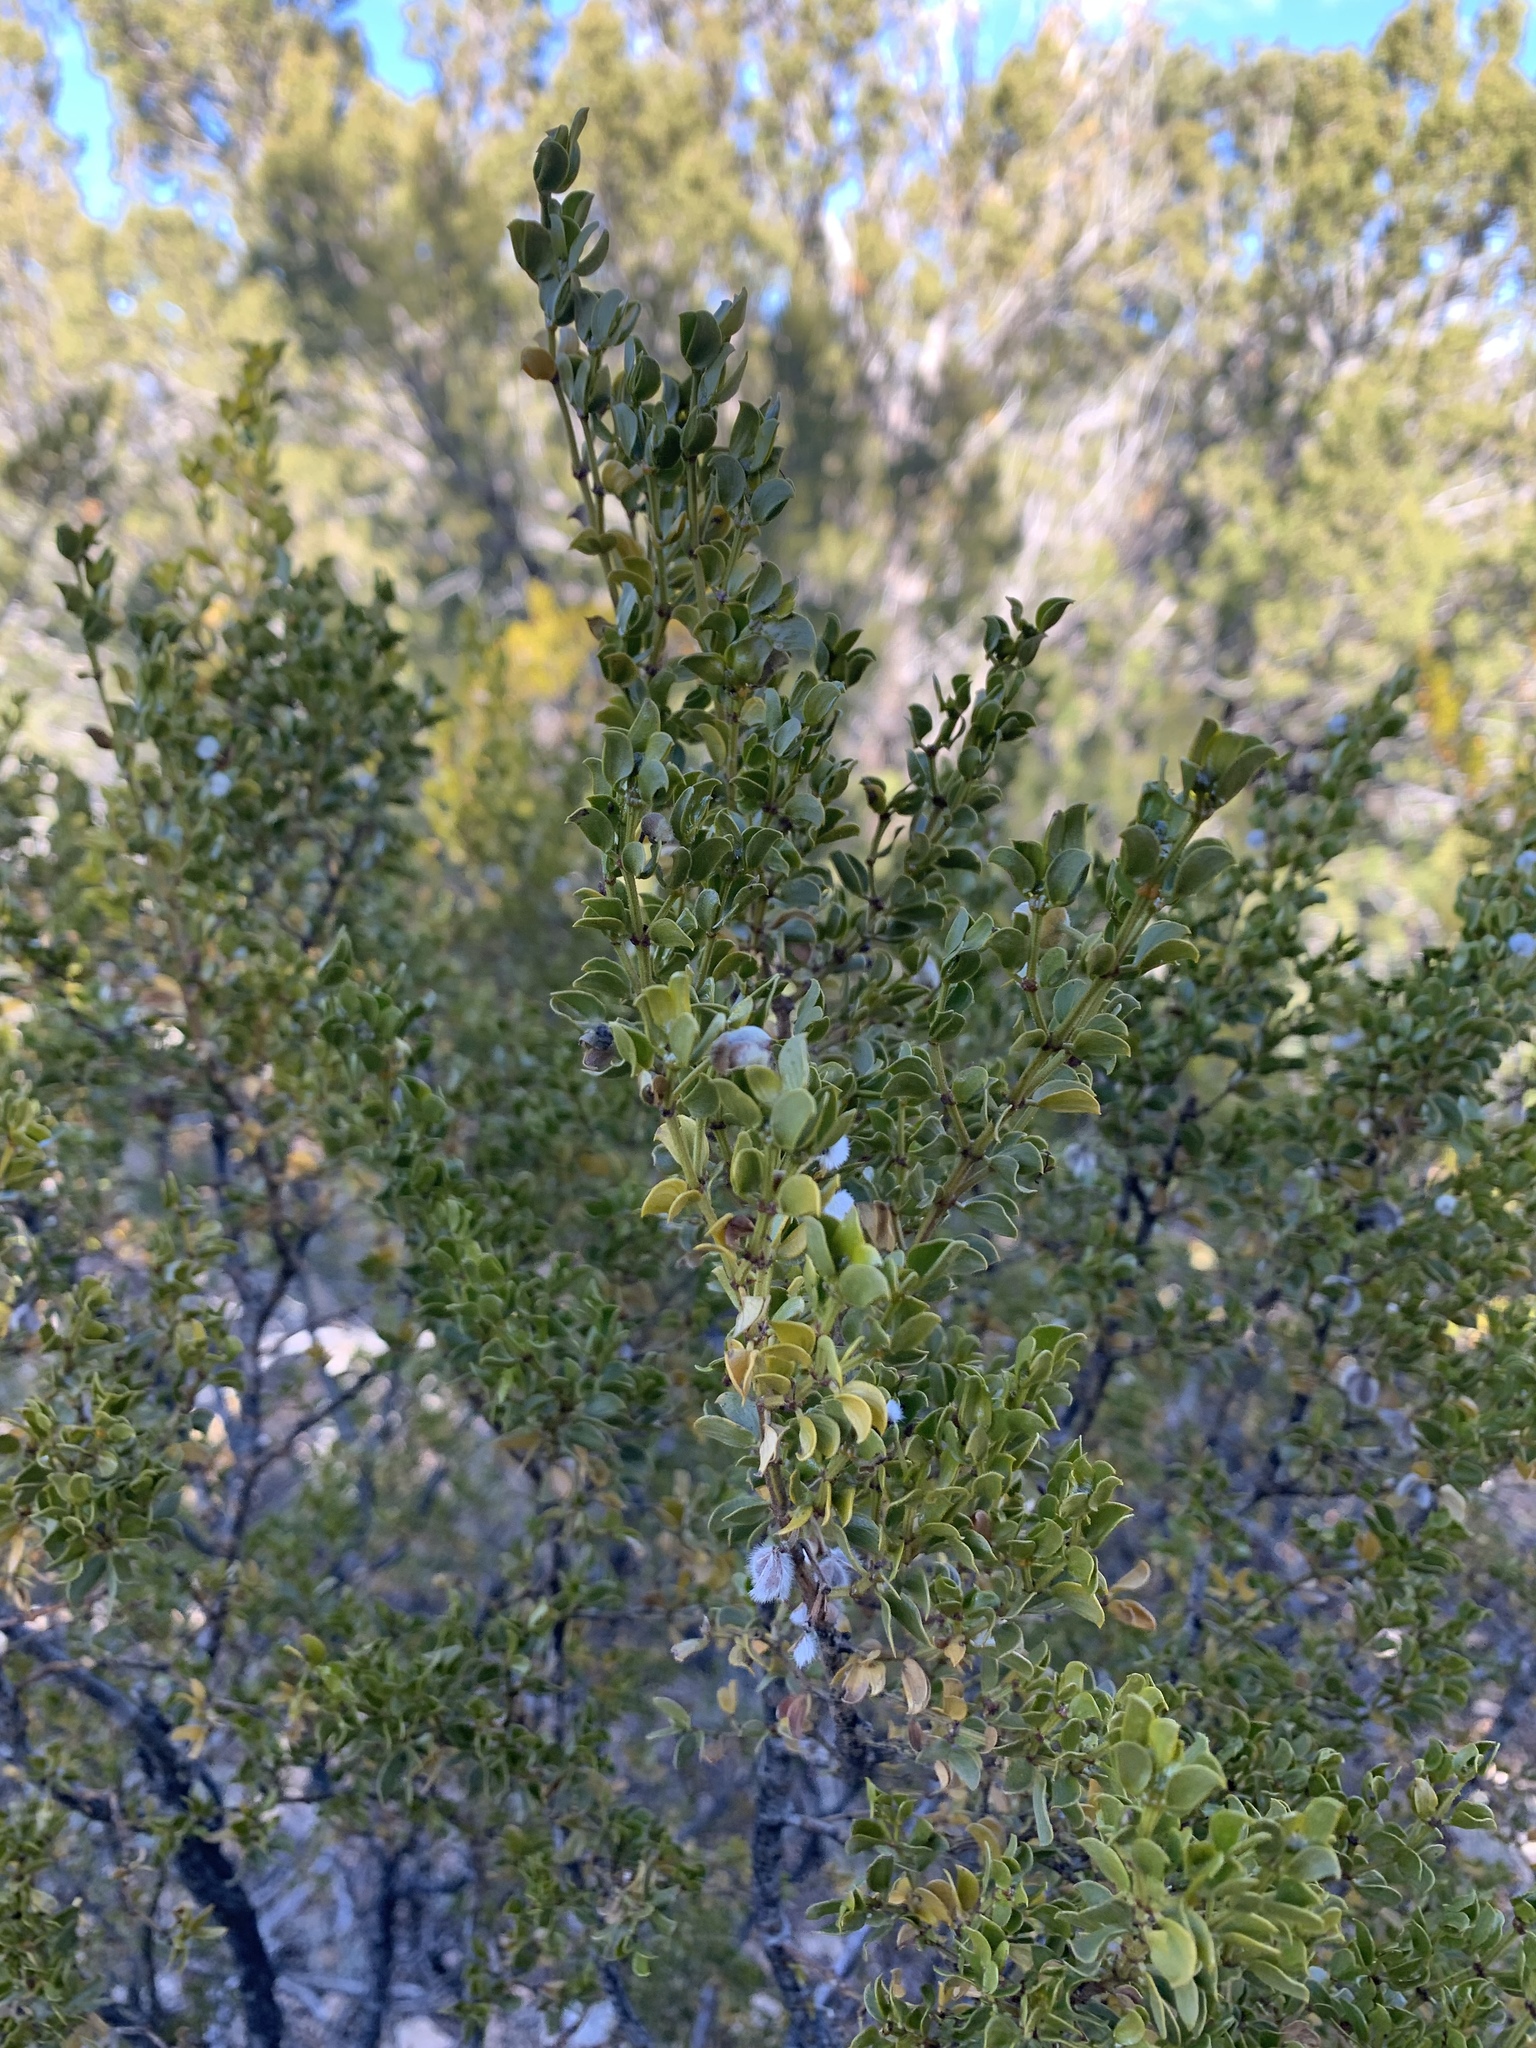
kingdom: Plantae
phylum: Tracheophyta
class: Magnoliopsida
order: Zygophyllales
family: Zygophyllaceae
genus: Larrea
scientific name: Larrea tridentata
